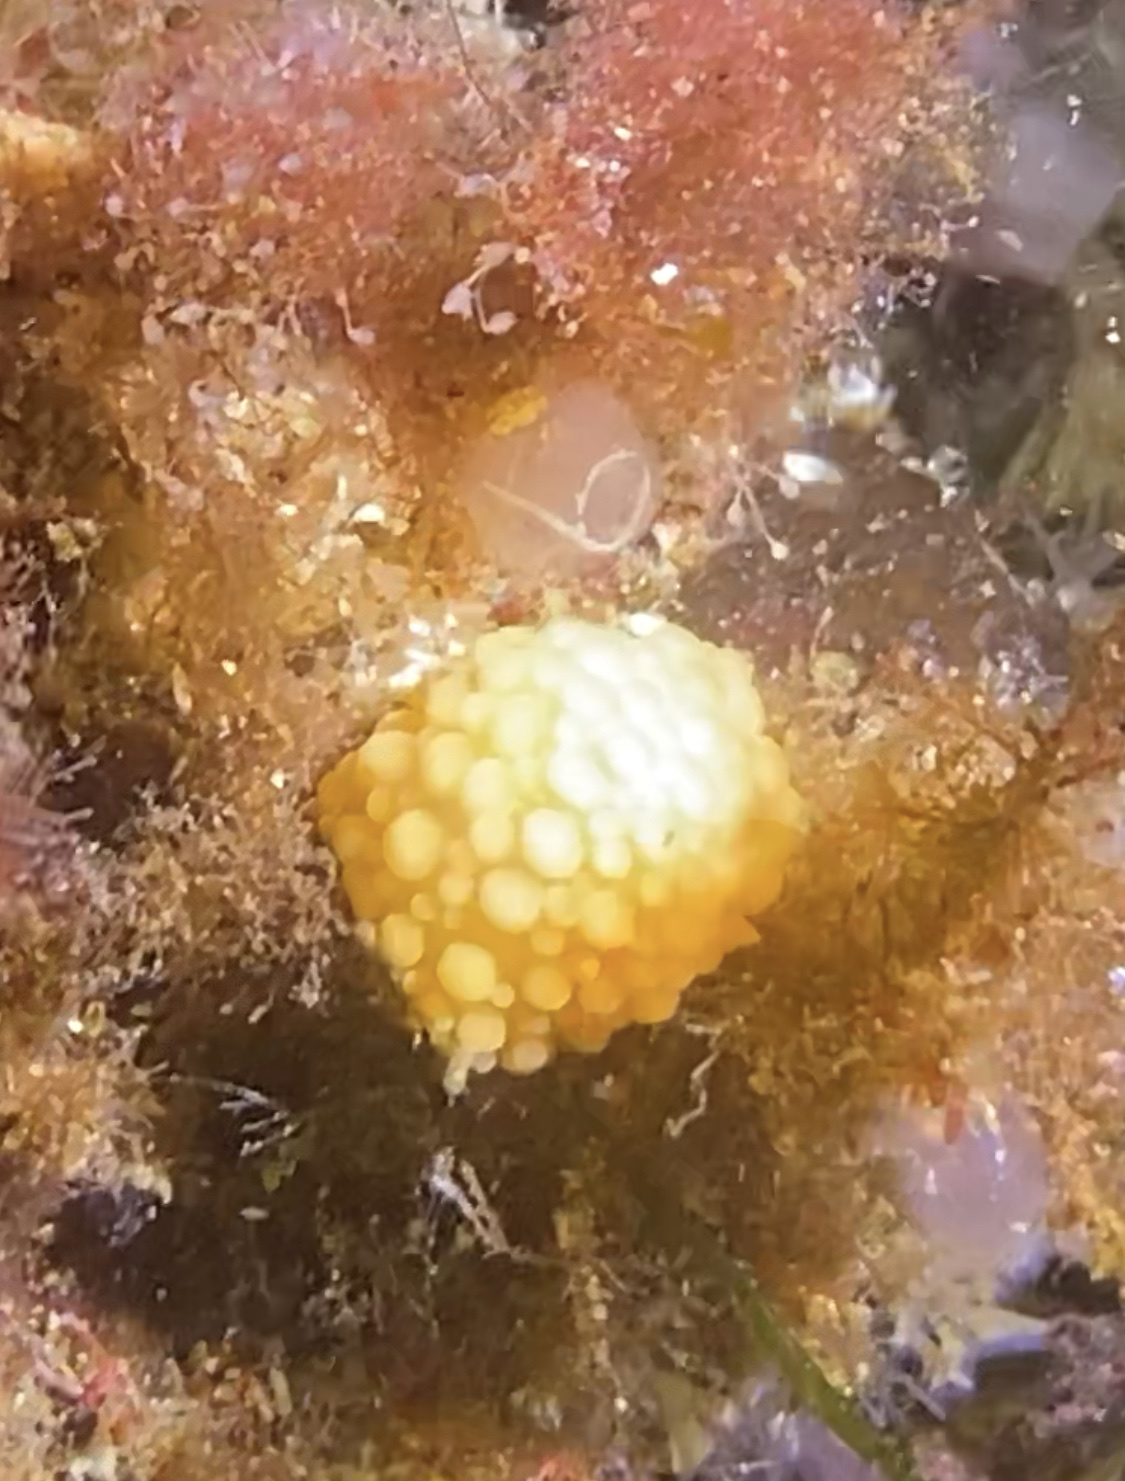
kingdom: Animalia
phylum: Mollusca
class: Gastropoda
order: Nudibranchia
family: Onchidorididae
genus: Adalaria
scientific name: Adalaria loveni
